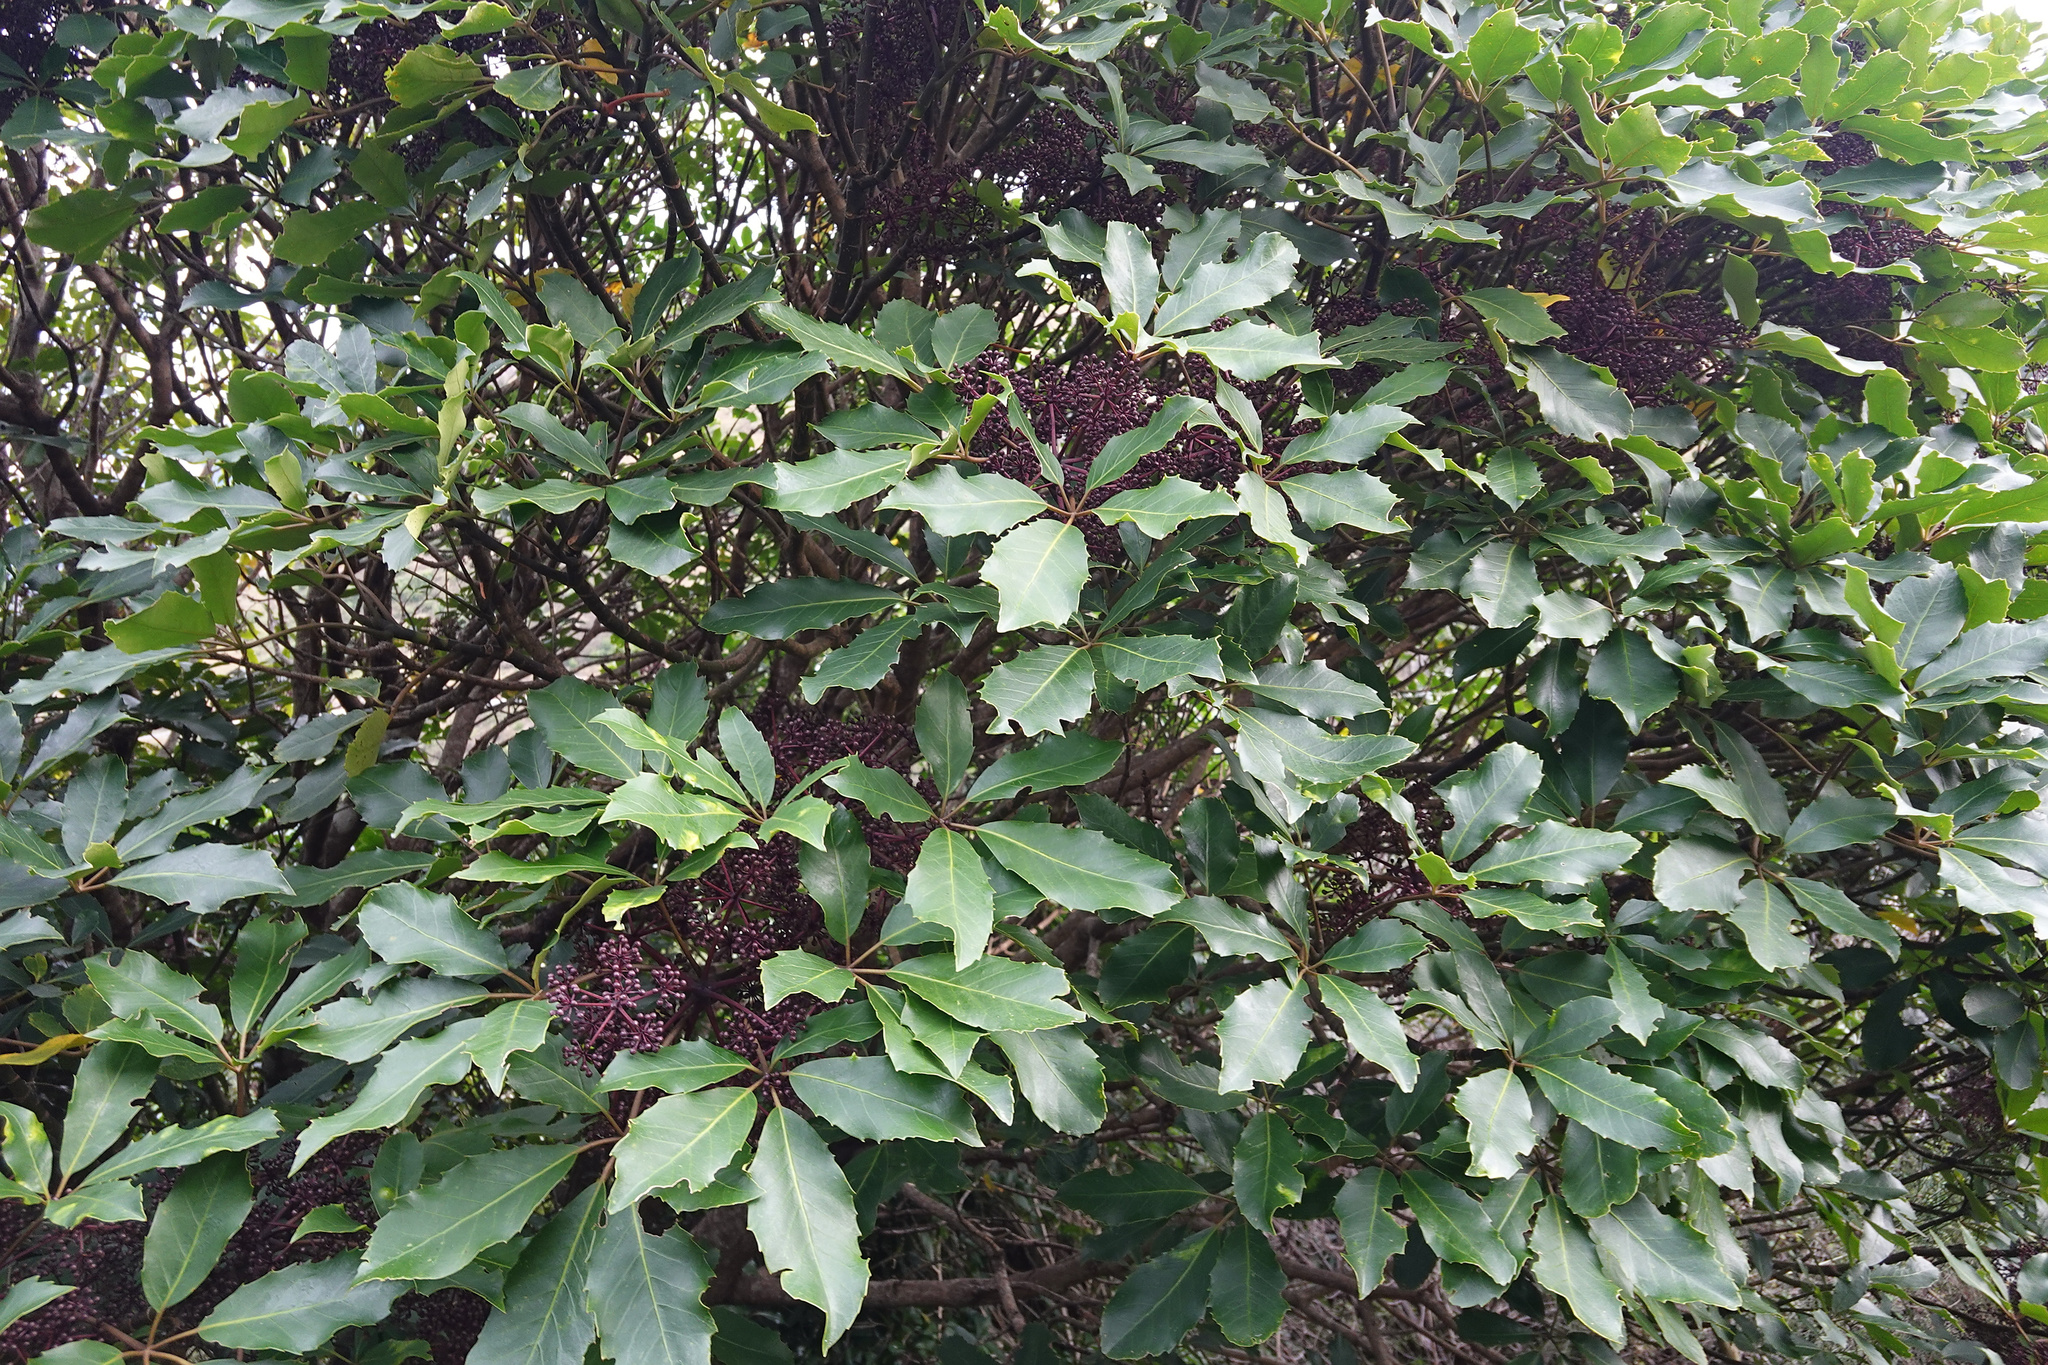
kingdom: Plantae
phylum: Tracheophyta
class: Magnoliopsida
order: Apiales
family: Araliaceae
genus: Neopanax
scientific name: Neopanax arboreus
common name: Five-fingers
